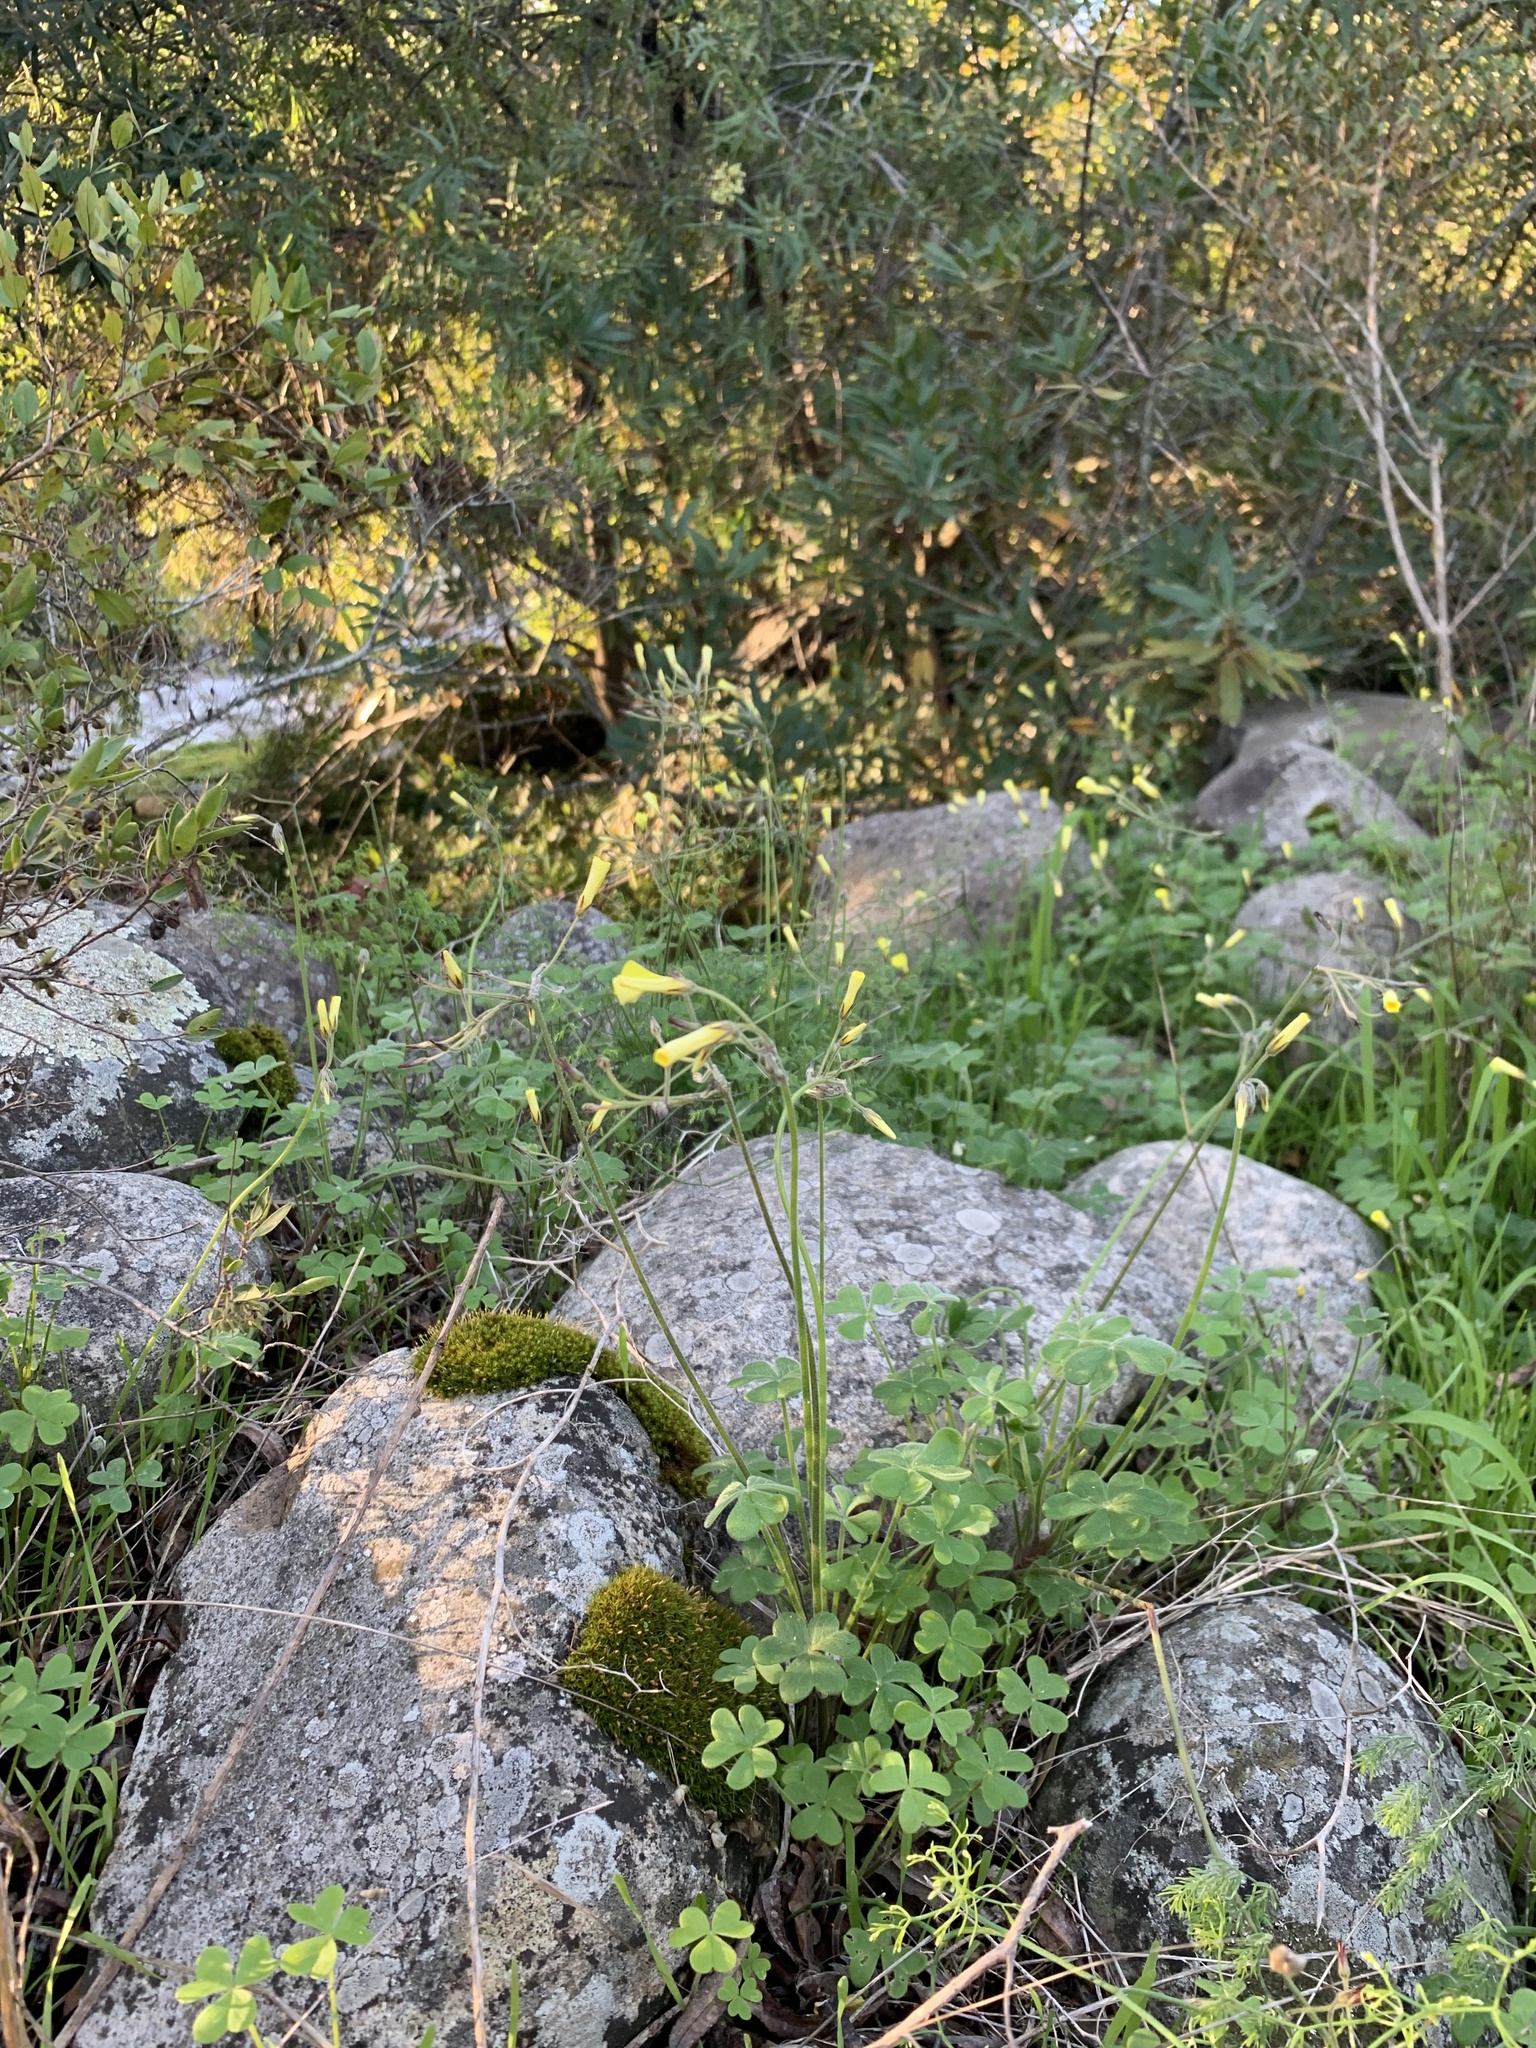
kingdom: Plantae
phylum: Tracheophyta
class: Magnoliopsida
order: Oxalidales
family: Oxalidaceae
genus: Oxalis
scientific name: Oxalis pes-caprae
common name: Bermuda-buttercup
